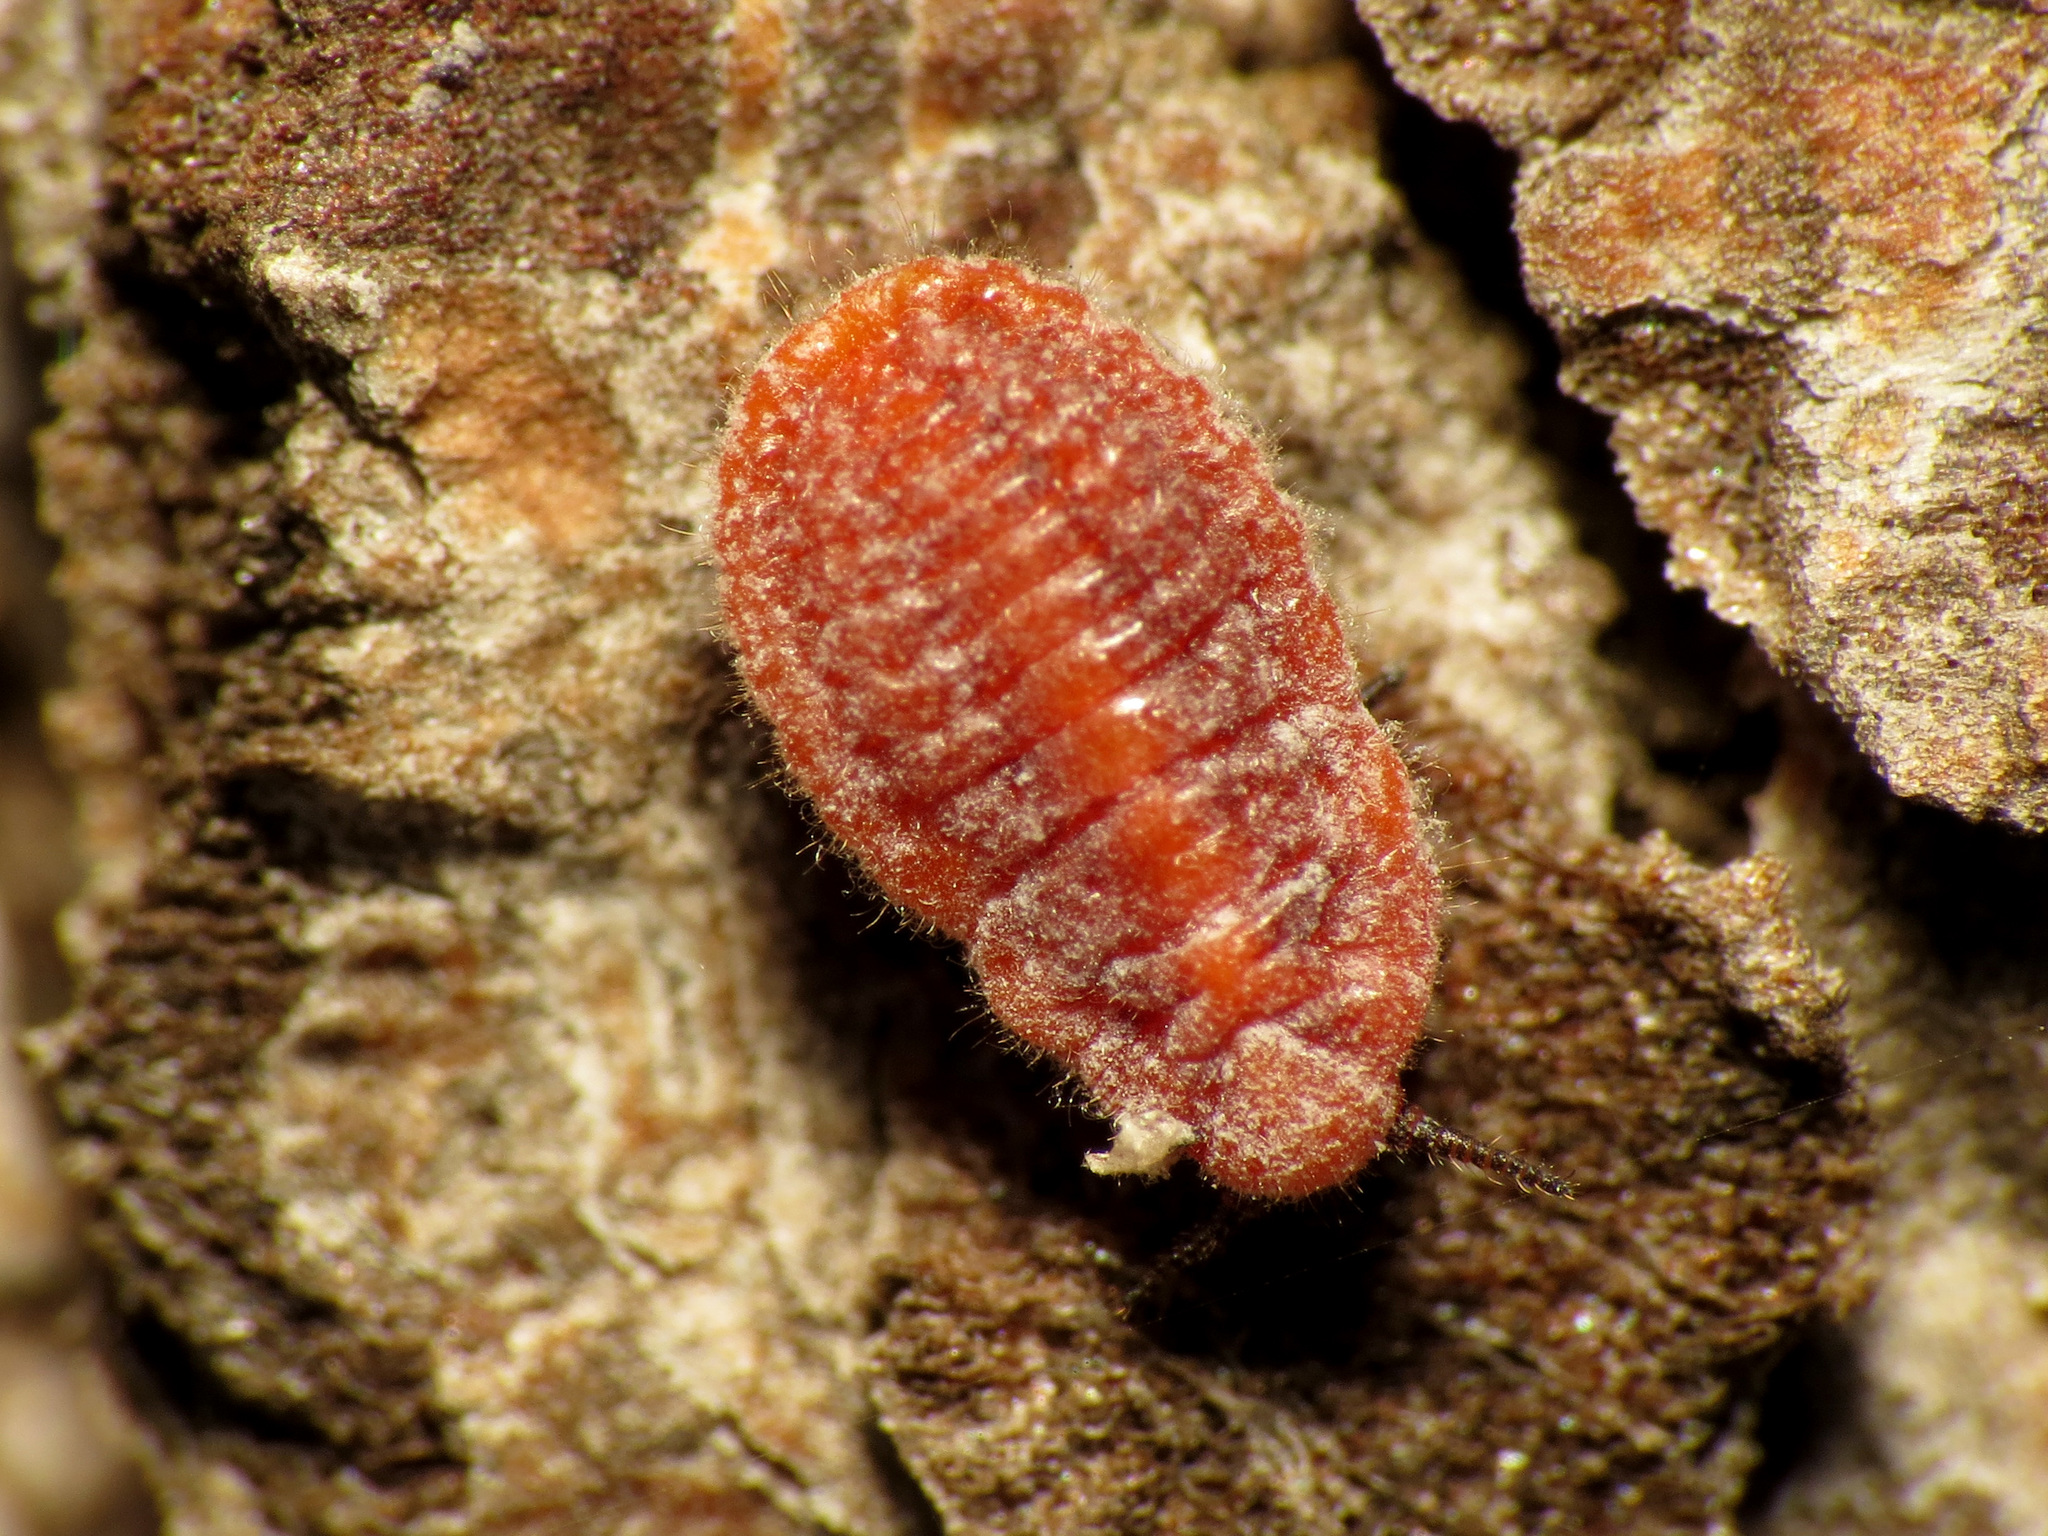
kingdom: Animalia
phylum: Arthropoda
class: Insecta
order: Hemiptera
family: Margarodidae
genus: Palaeococcus
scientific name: Palaeococcus fuscipennis
